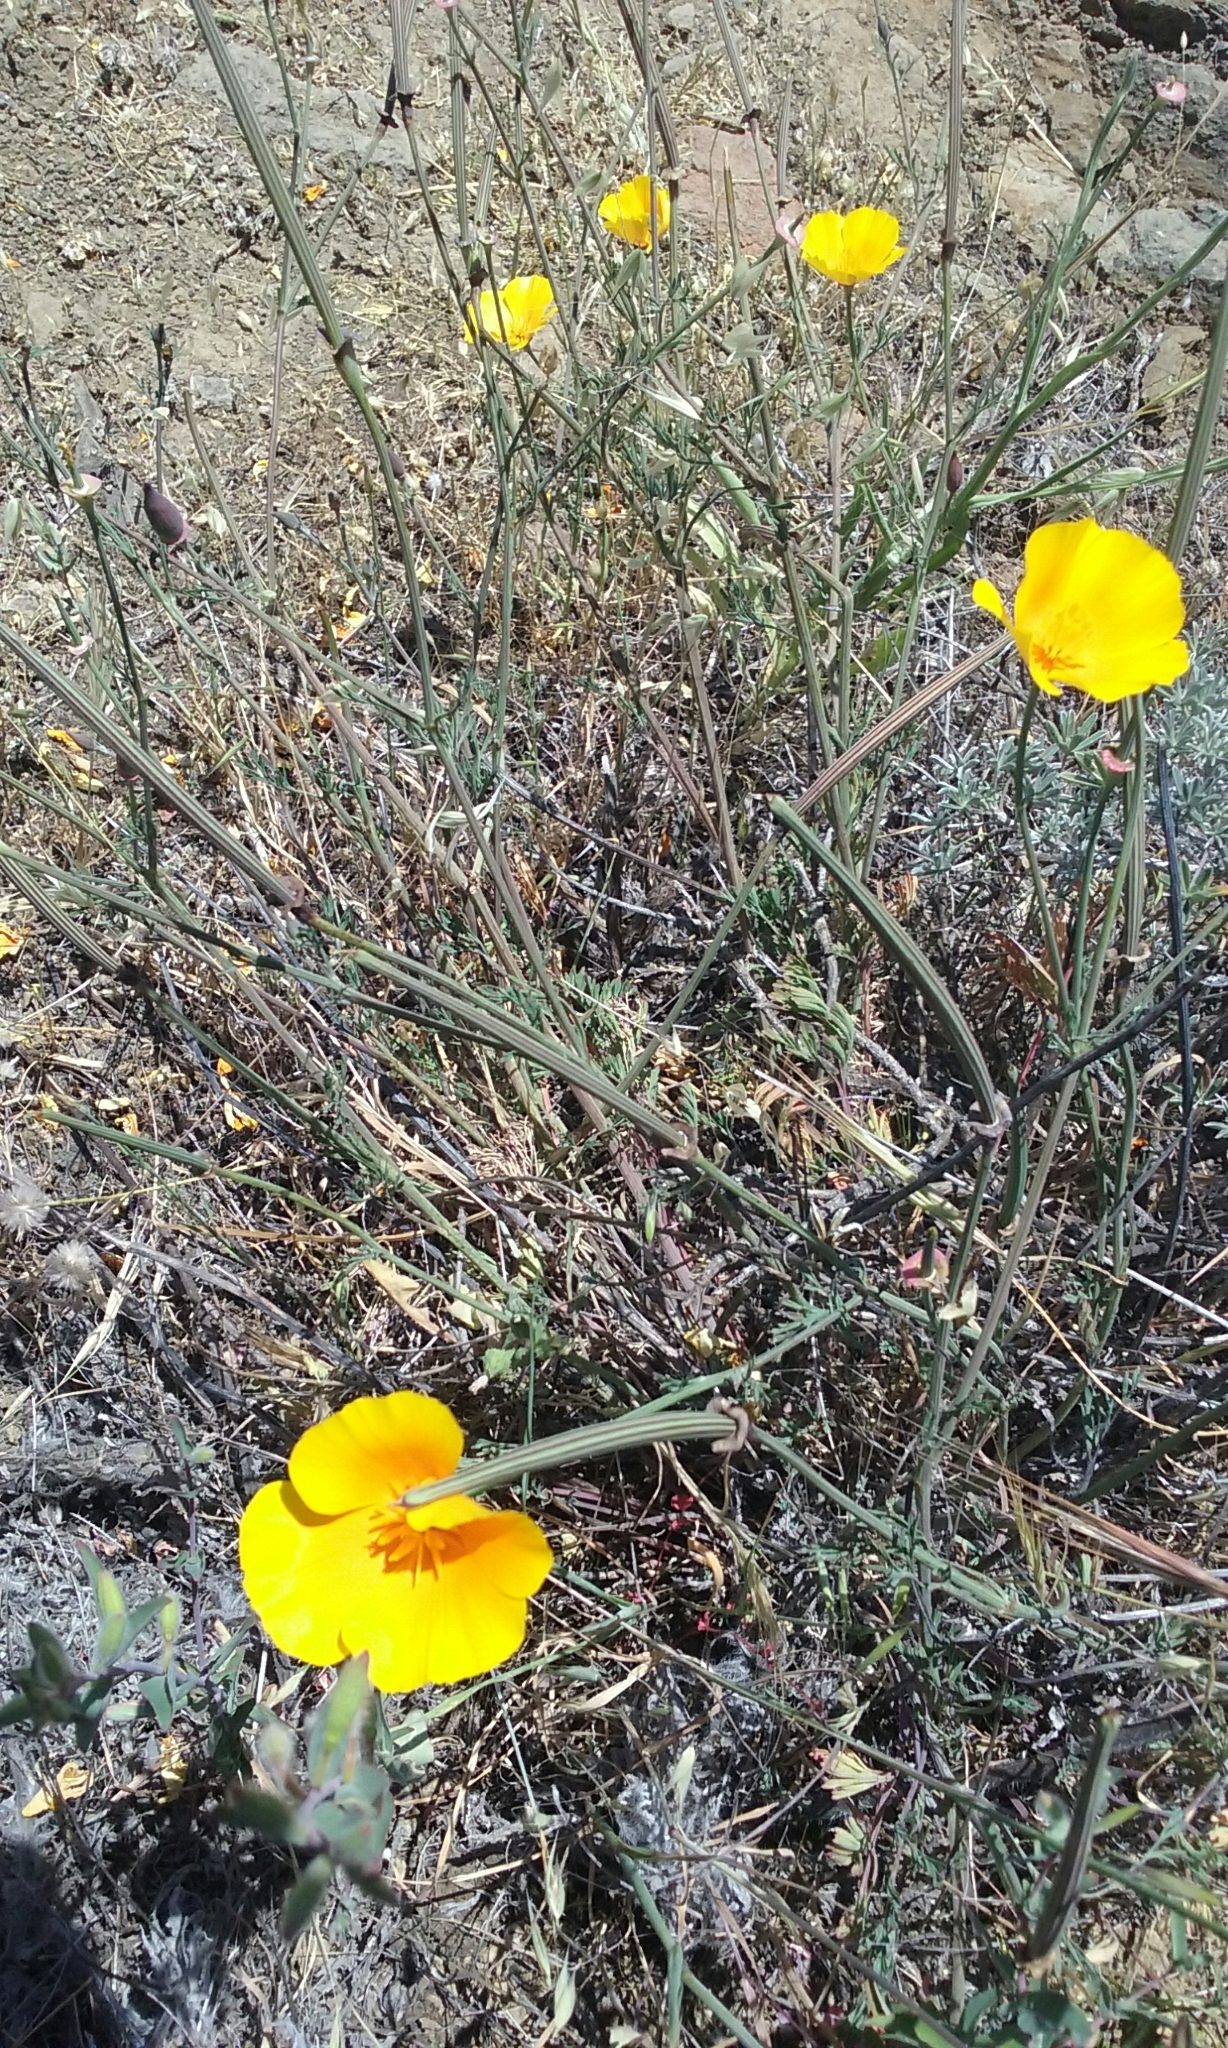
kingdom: Plantae
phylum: Tracheophyta
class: Magnoliopsida
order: Ranunculales
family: Papaveraceae
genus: Eschscholzia
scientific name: Eschscholzia californica
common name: California poppy
